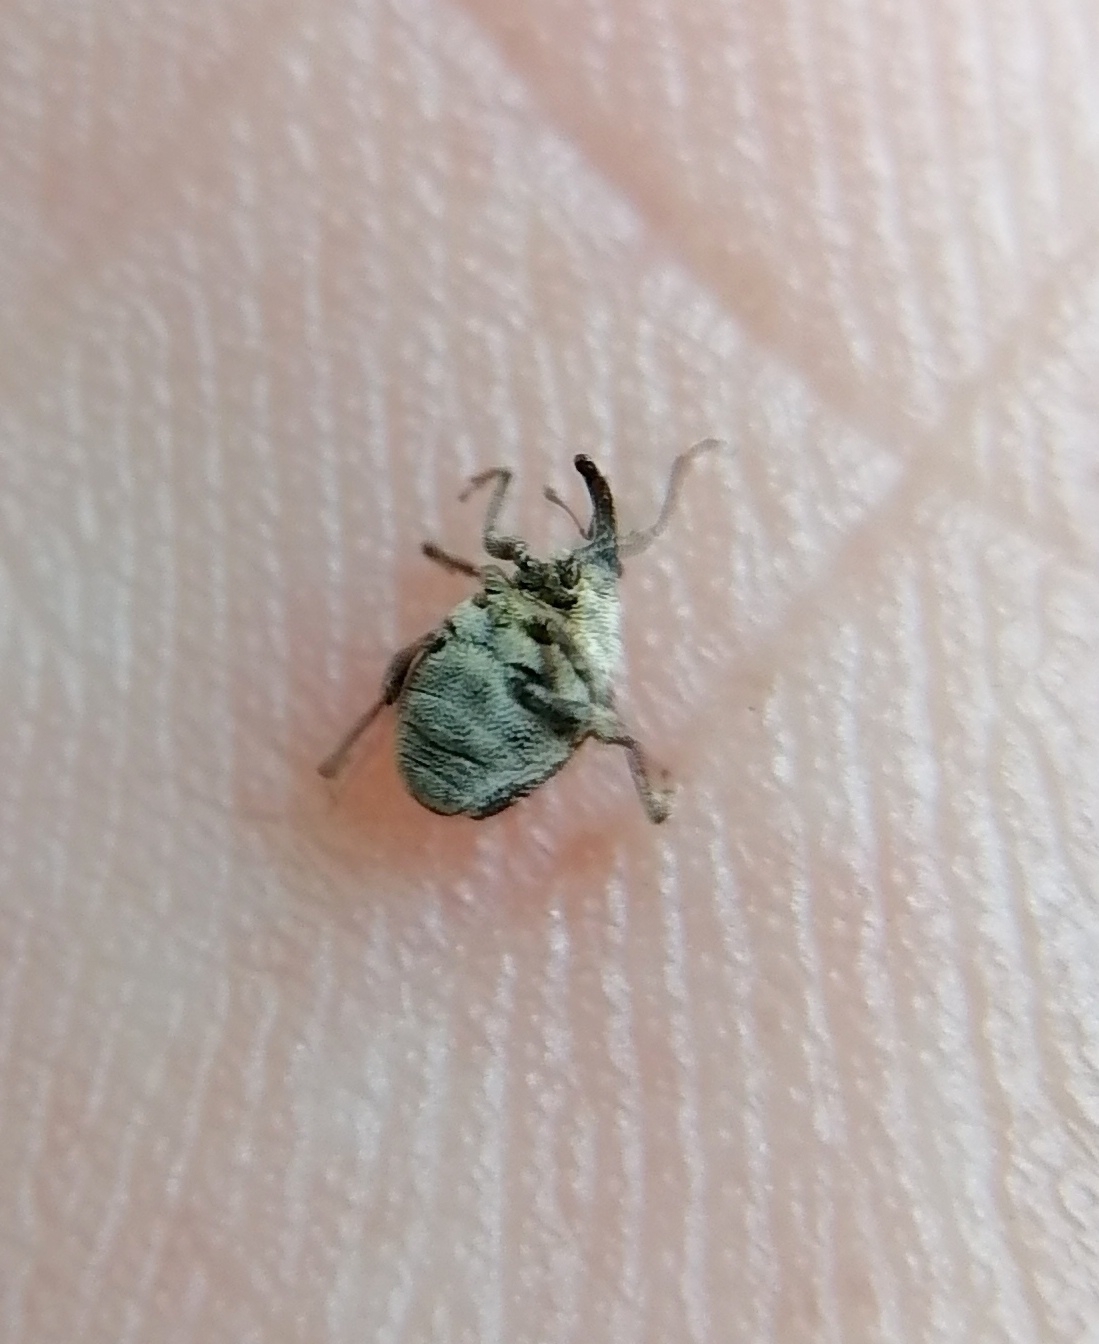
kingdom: Animalia
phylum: Arthropoda
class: Insecta
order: Coleoptera
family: Curculionidae
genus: Nedyus
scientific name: Nedyus quadrimaculatus
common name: Small nettle weevil
